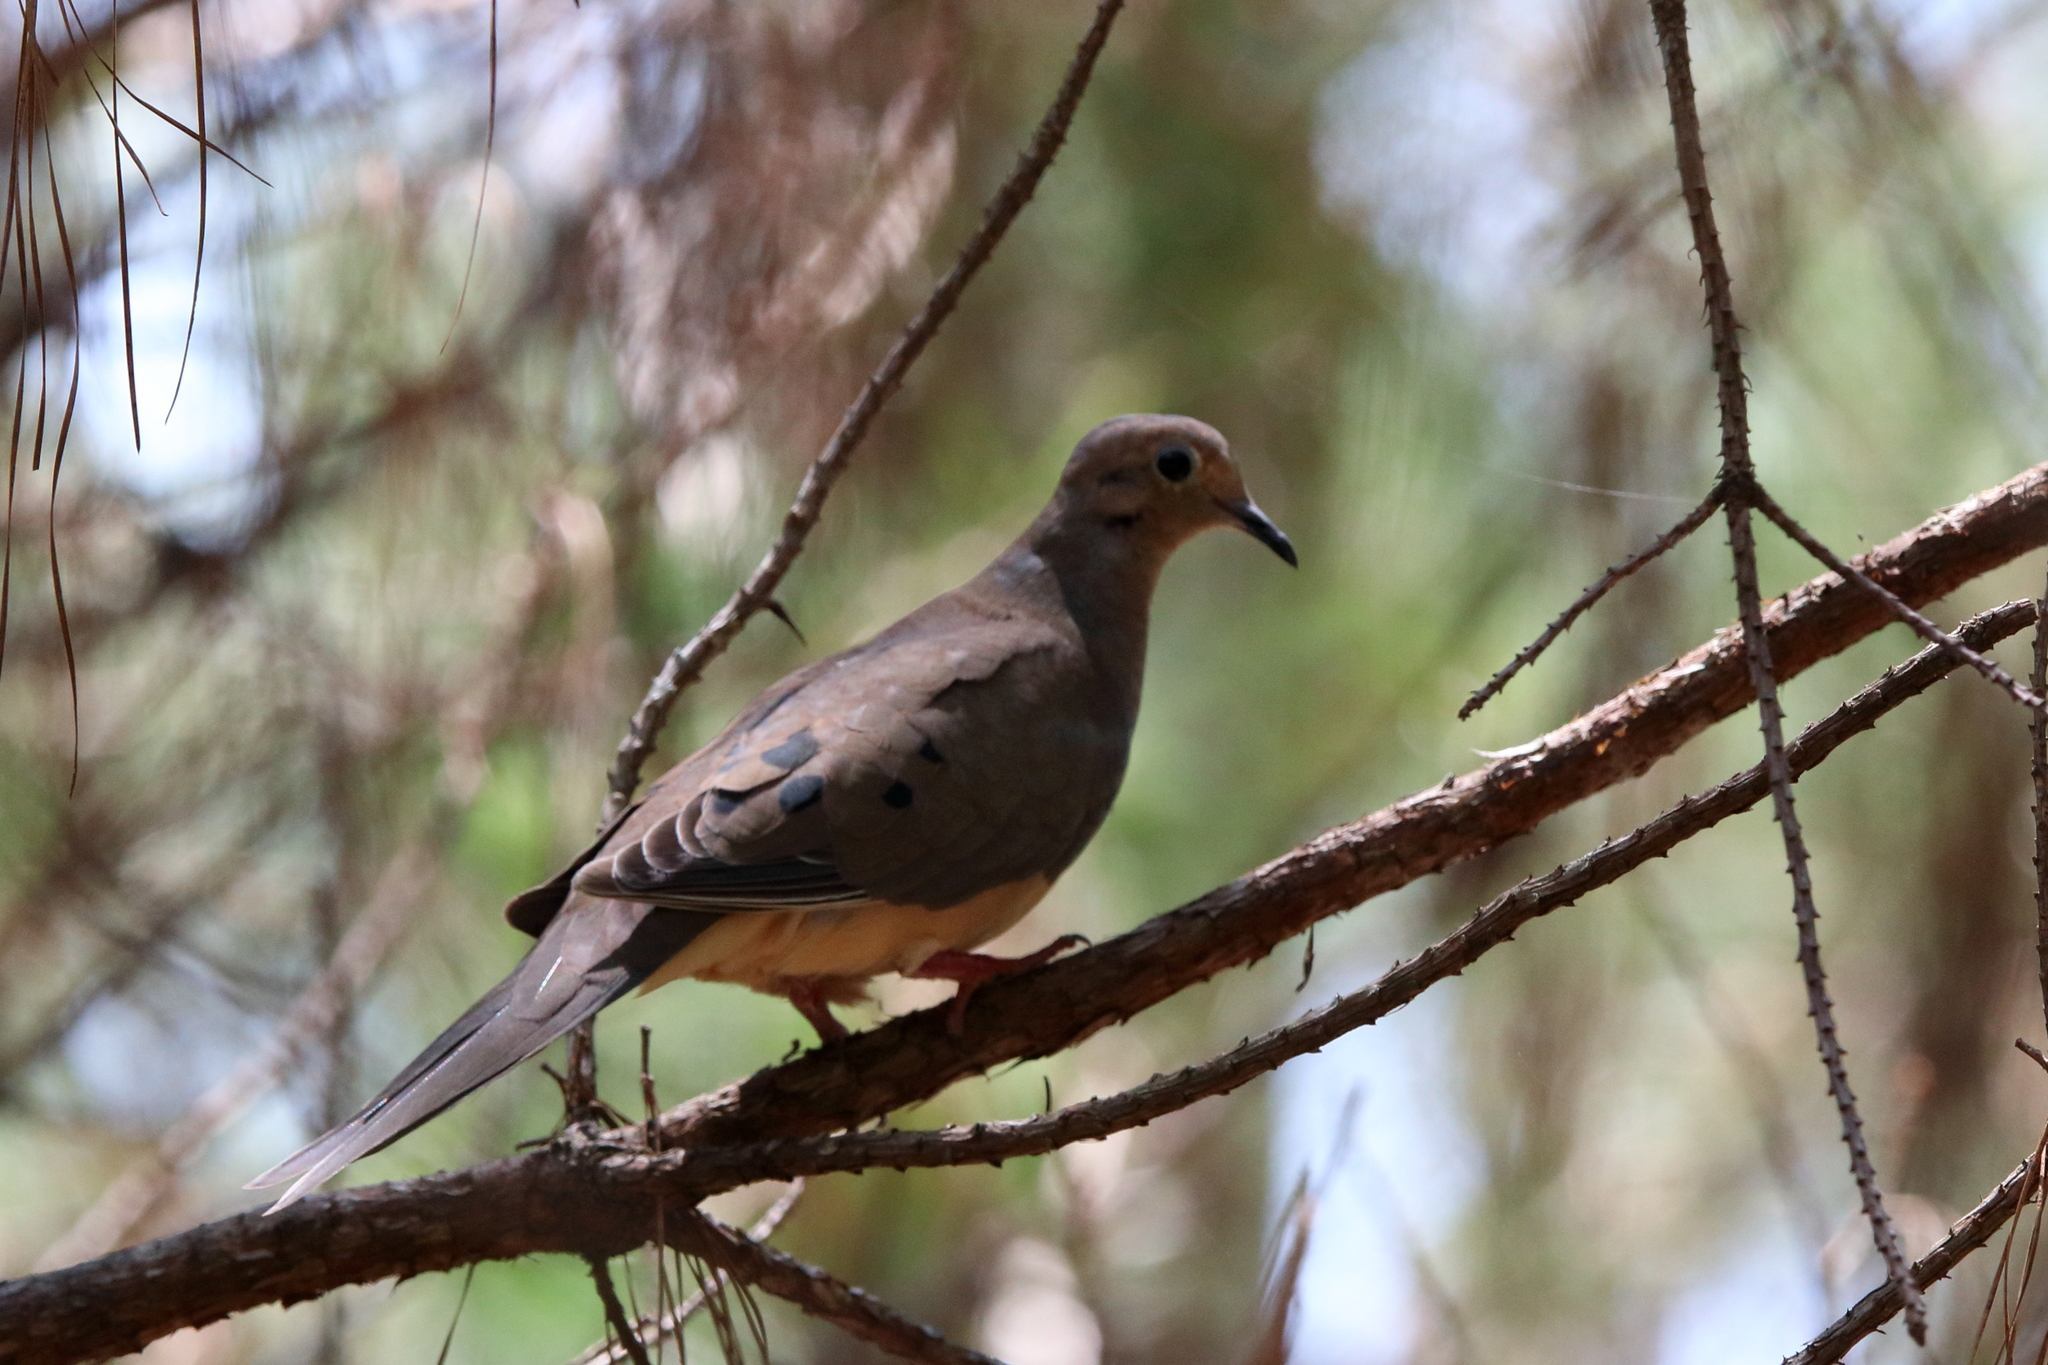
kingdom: Animalia
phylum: Chordata
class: Aves
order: Columbiformes
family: Columbidae
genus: Zenaida
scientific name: Zenaida macroura
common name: Mourning dove
